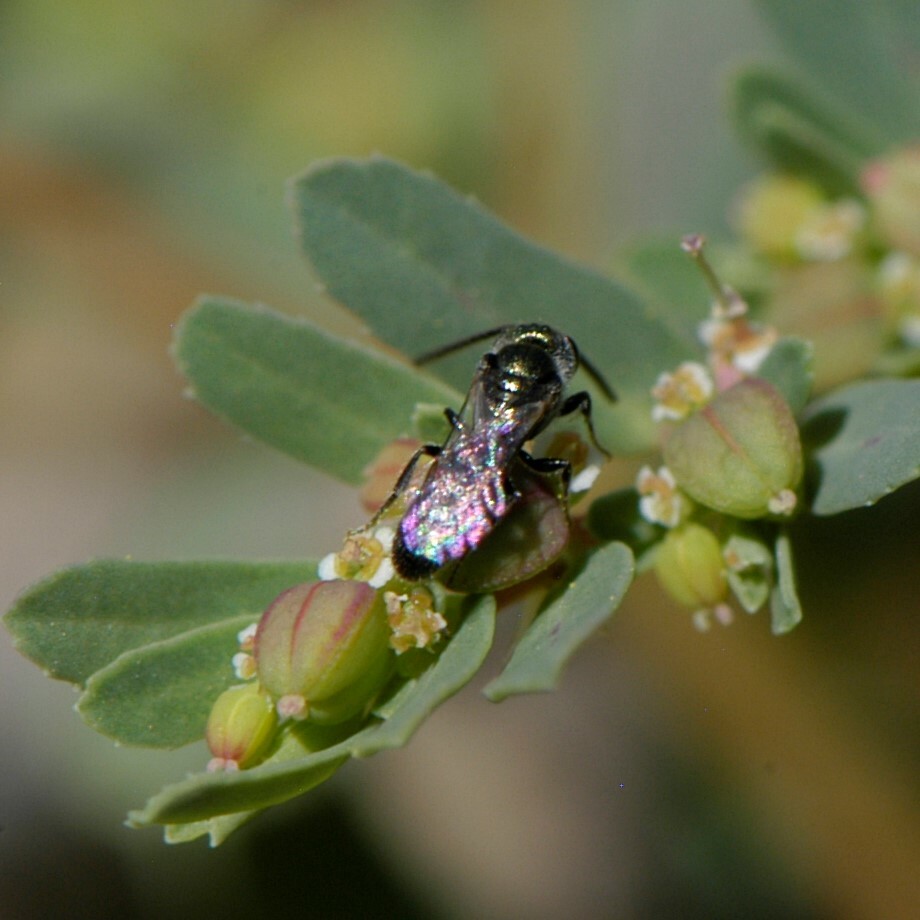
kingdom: Animalia
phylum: Arthropoda
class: Insecta
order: Hymenoptera
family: Halictidae
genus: Dialictus
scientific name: Dialictus
